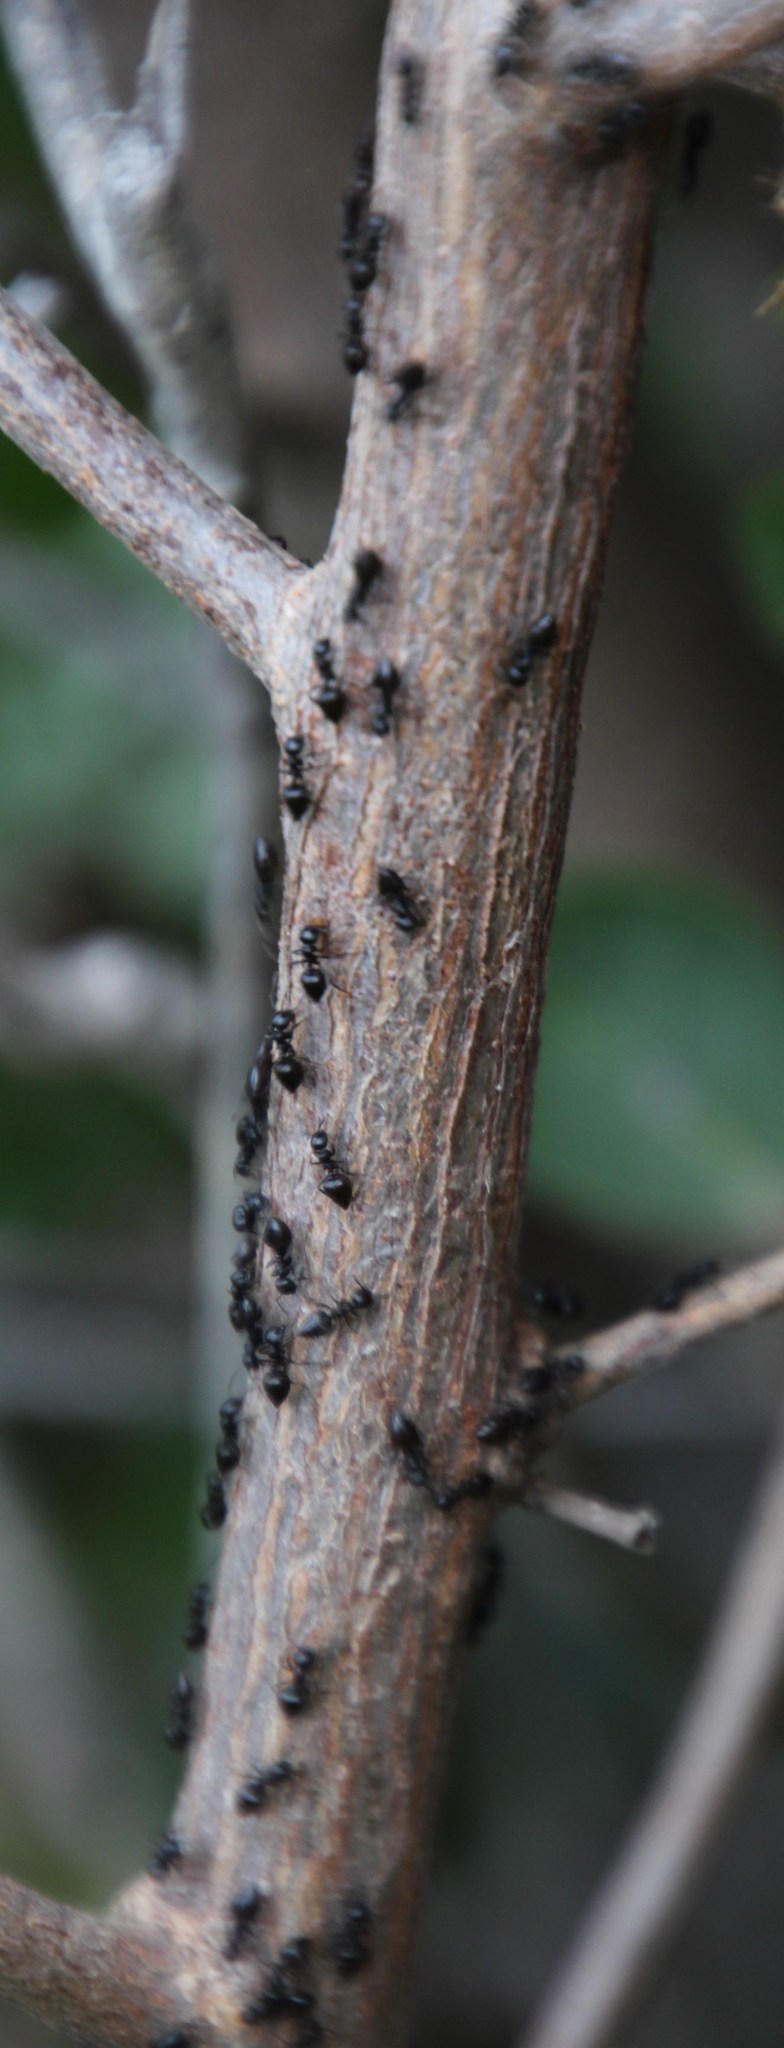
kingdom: Animalia
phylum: Arthropoda
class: Insecta
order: Hymenoptera
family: Formicidae
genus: Crematogaster
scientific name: Crematogaster peringueyi
